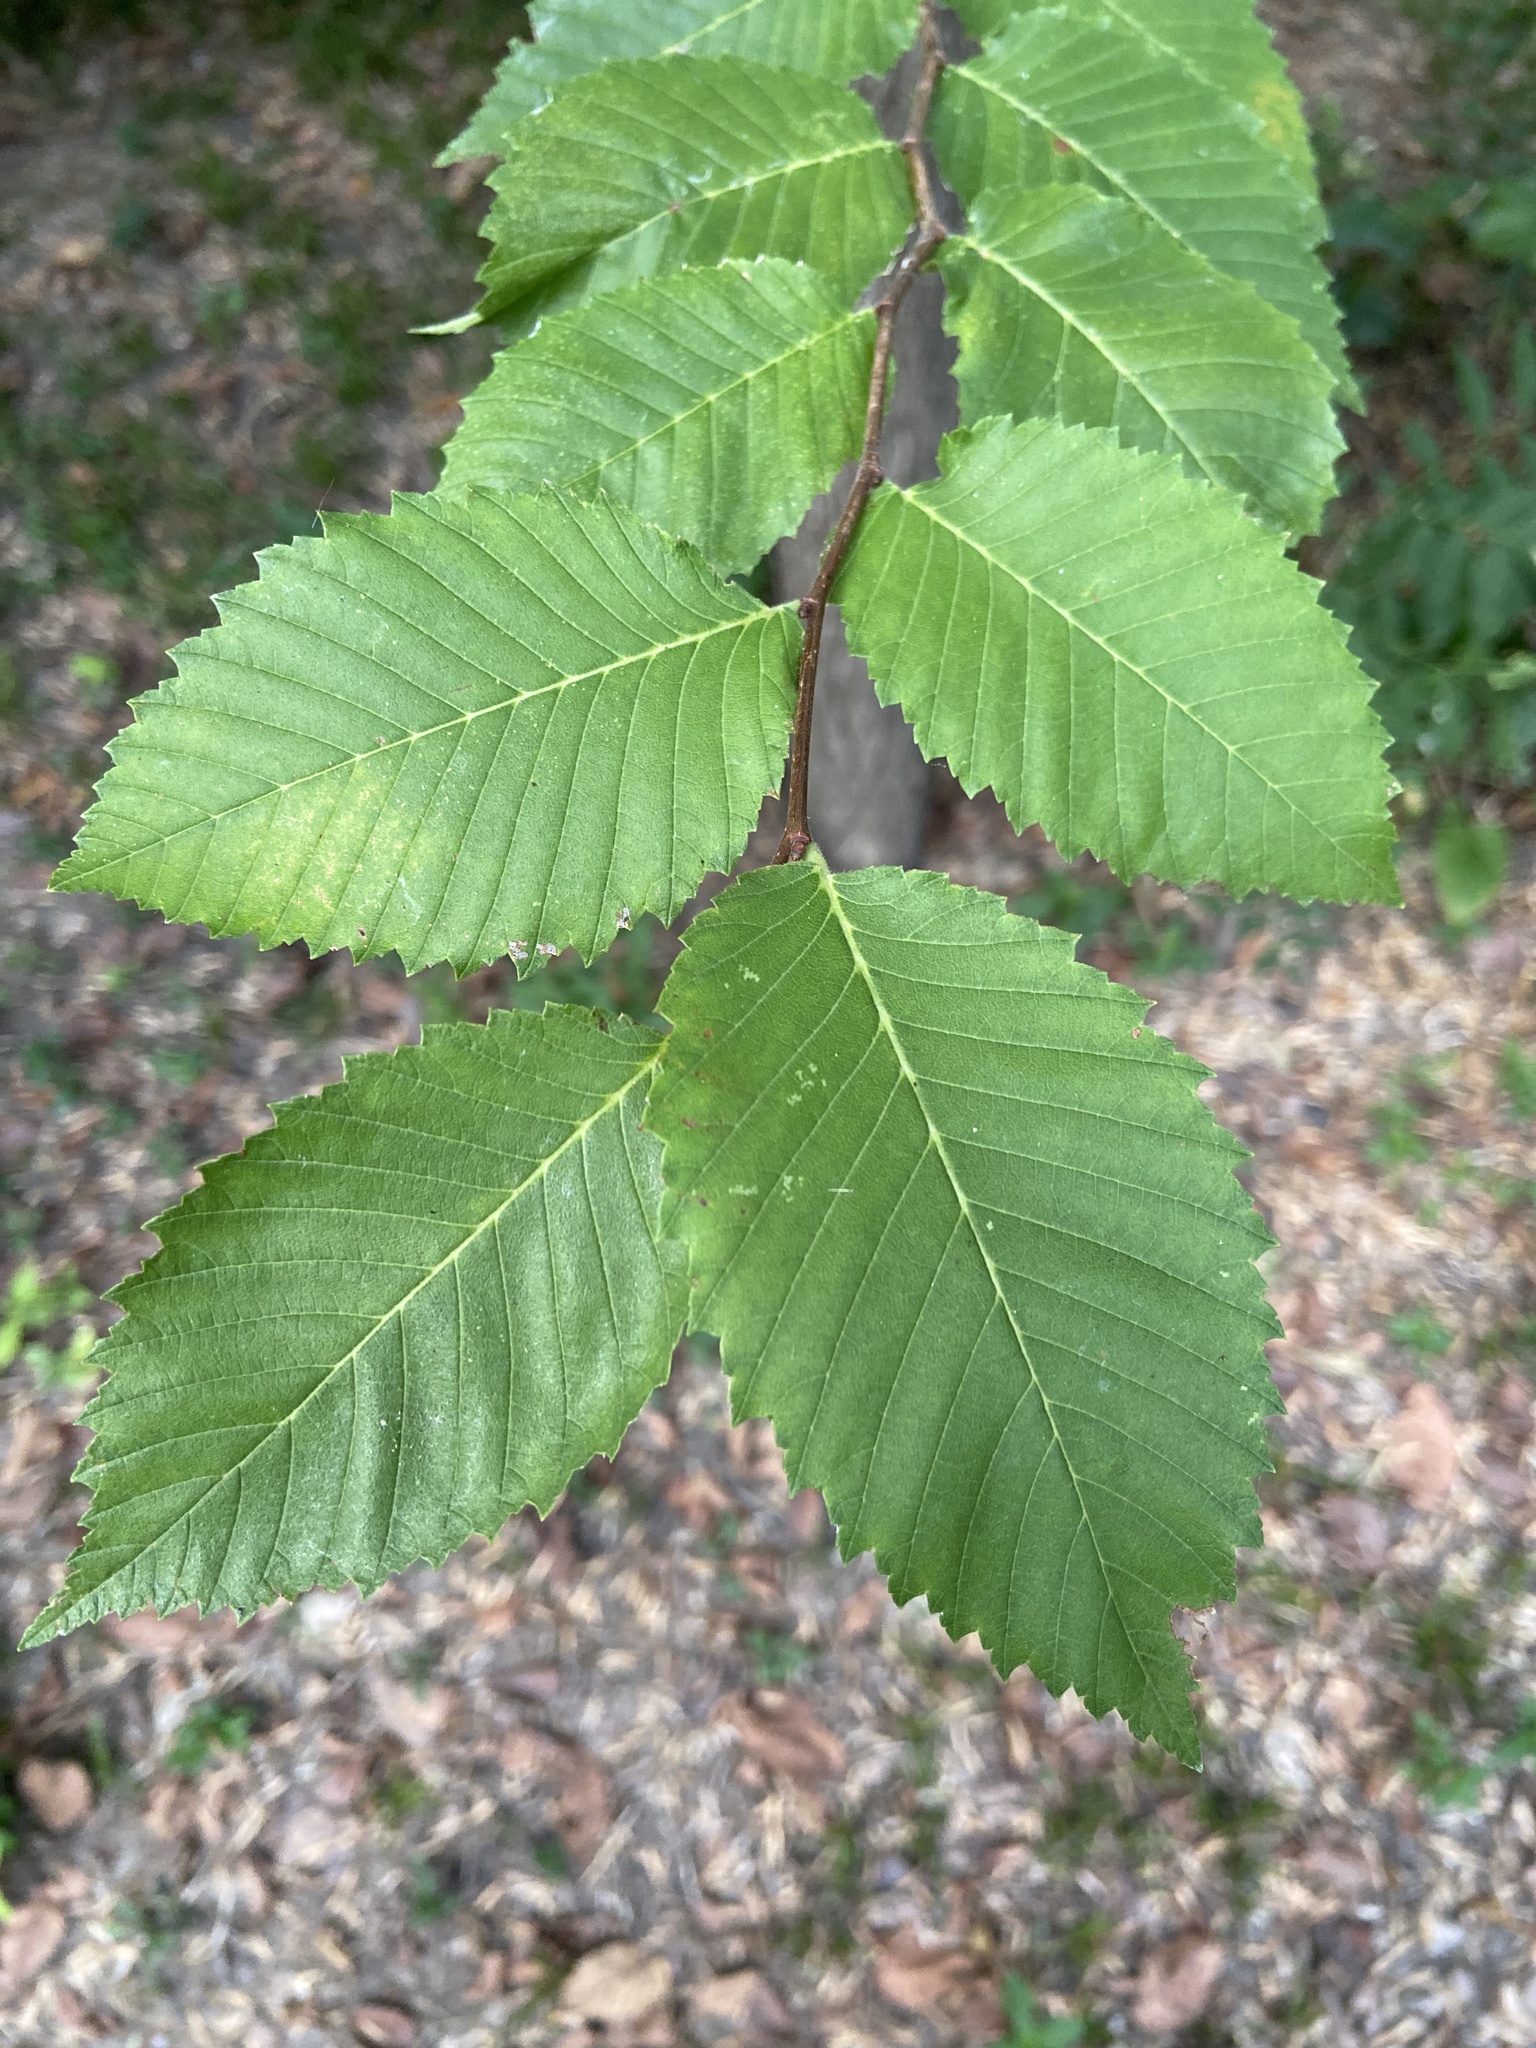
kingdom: Plantae
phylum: Tracheophyta
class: Magnoliopsida
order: Rosales
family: Ulmaceae
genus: Ulmus
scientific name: Ulmus americana
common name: American elm
